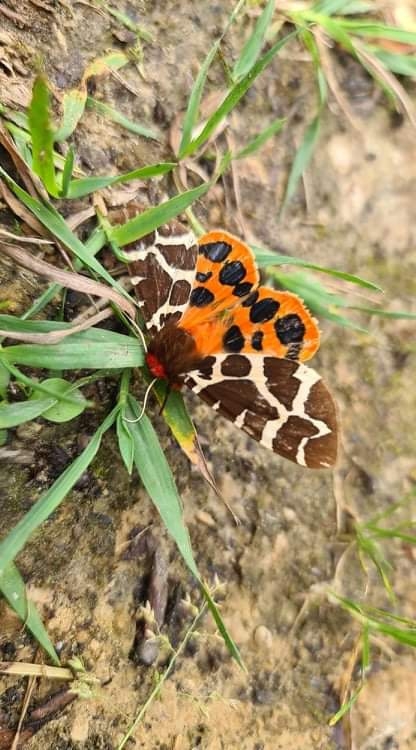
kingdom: Animalia
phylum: Arthropoda
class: Insecta
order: Lepidoptera
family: Erebidae
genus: Arctia
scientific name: Arctia caja
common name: Garden tiger
